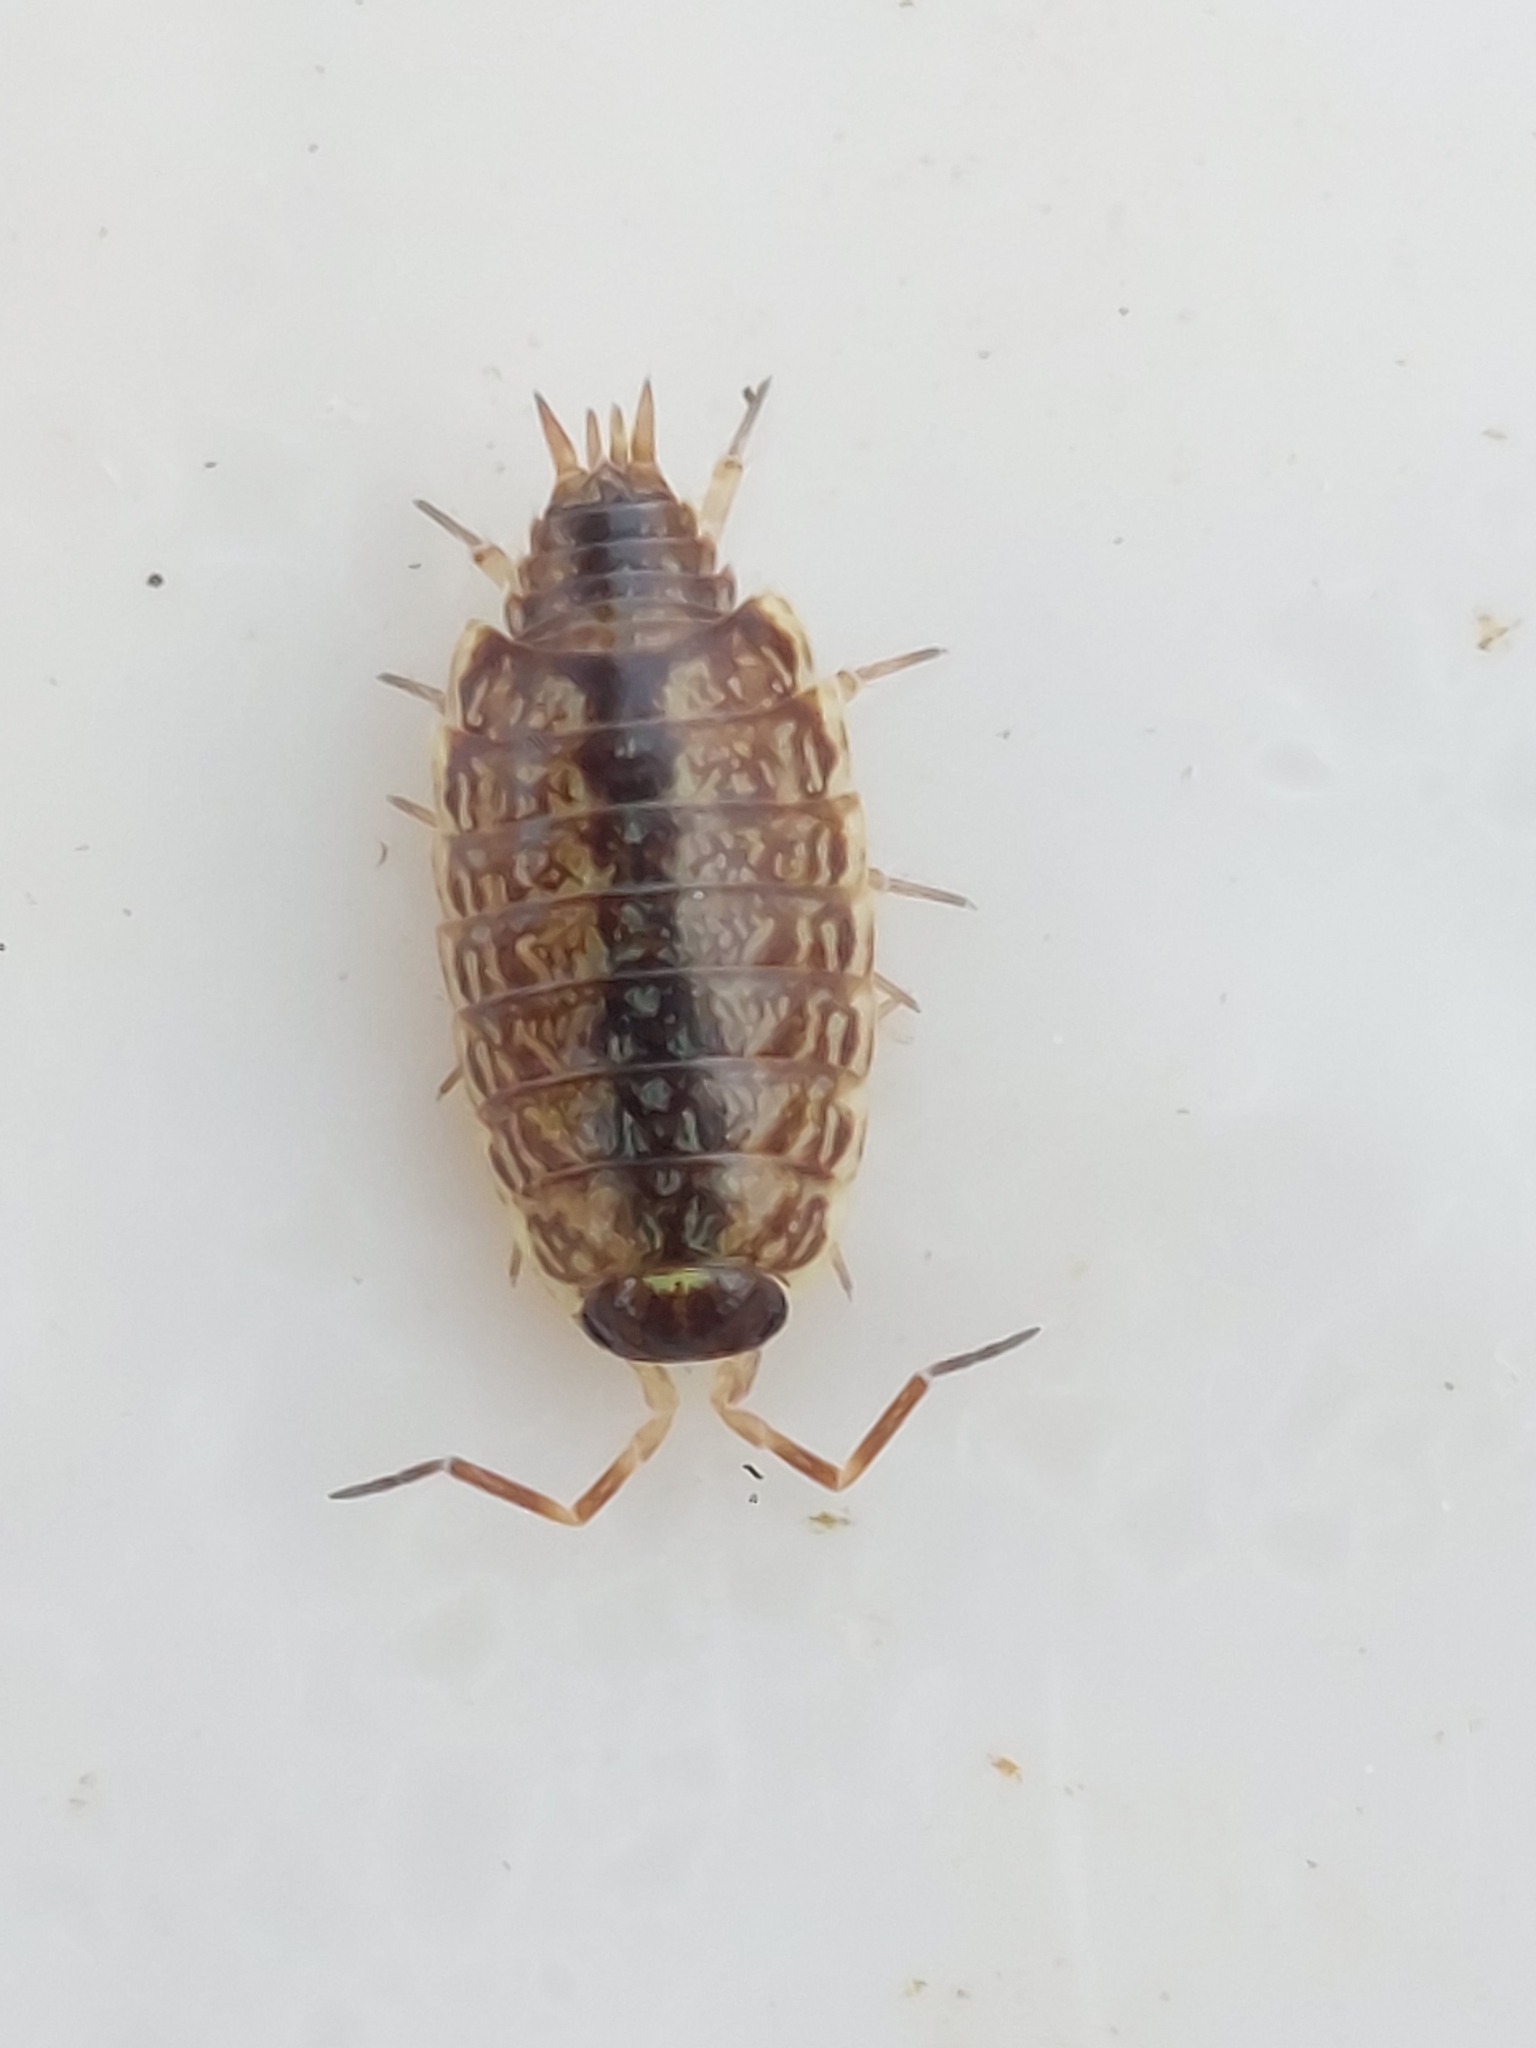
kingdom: Animalia
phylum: Arthropoda
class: Malacostraca
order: Isopoda
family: Philosciidae
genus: Philoscia
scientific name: Philoscia muscorum
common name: Common striped woodlouse
